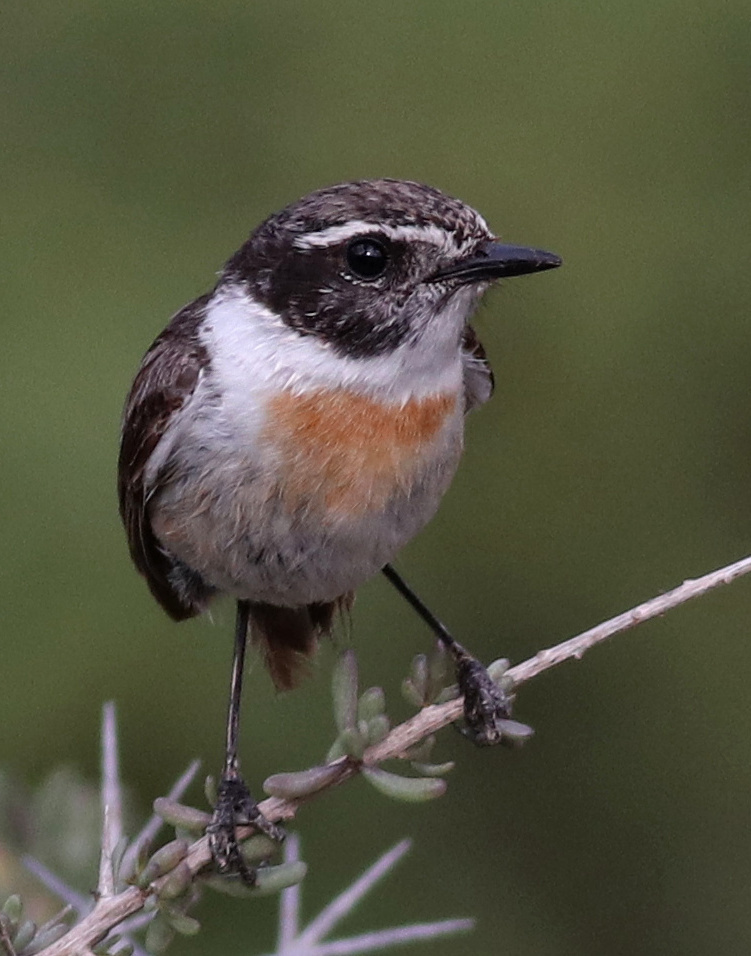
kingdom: Animalia
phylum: Chordata
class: Aves
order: Passeriformes
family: Muscicapidae
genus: Saxicola
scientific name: Saxicola dacotiae
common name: Canary islands stonechat
